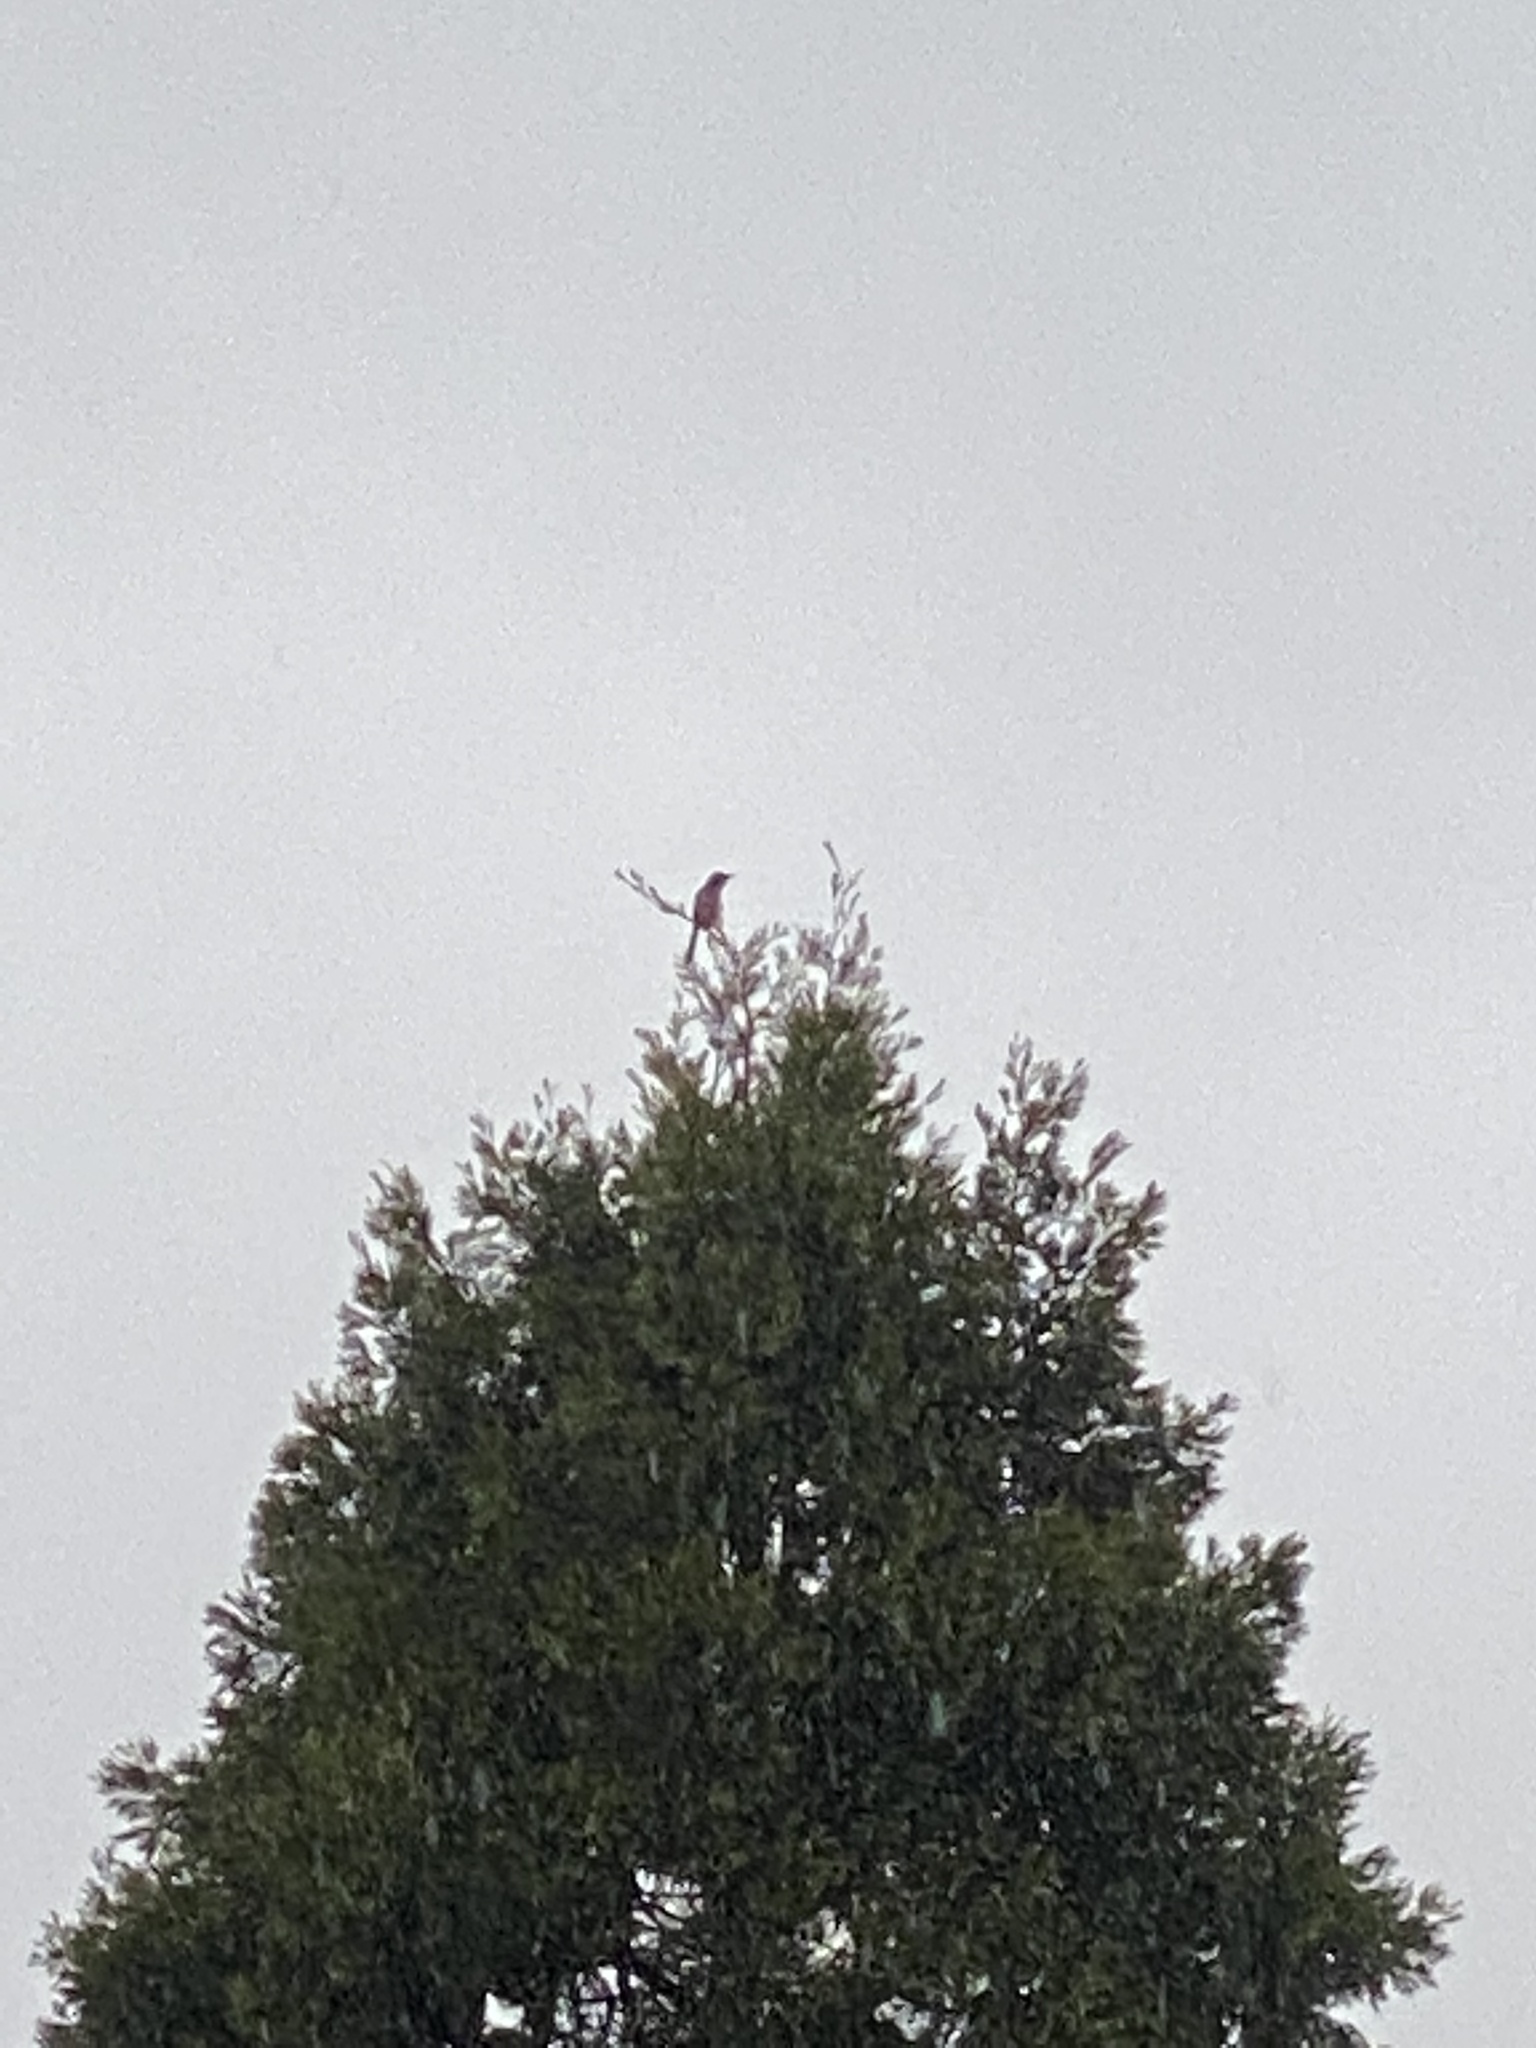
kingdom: Animalia
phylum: Chordata
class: Aves
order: Passeriformes
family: Corvidae
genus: Aphelocoma
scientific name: Aphelocoma californica
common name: California scrub-jay
